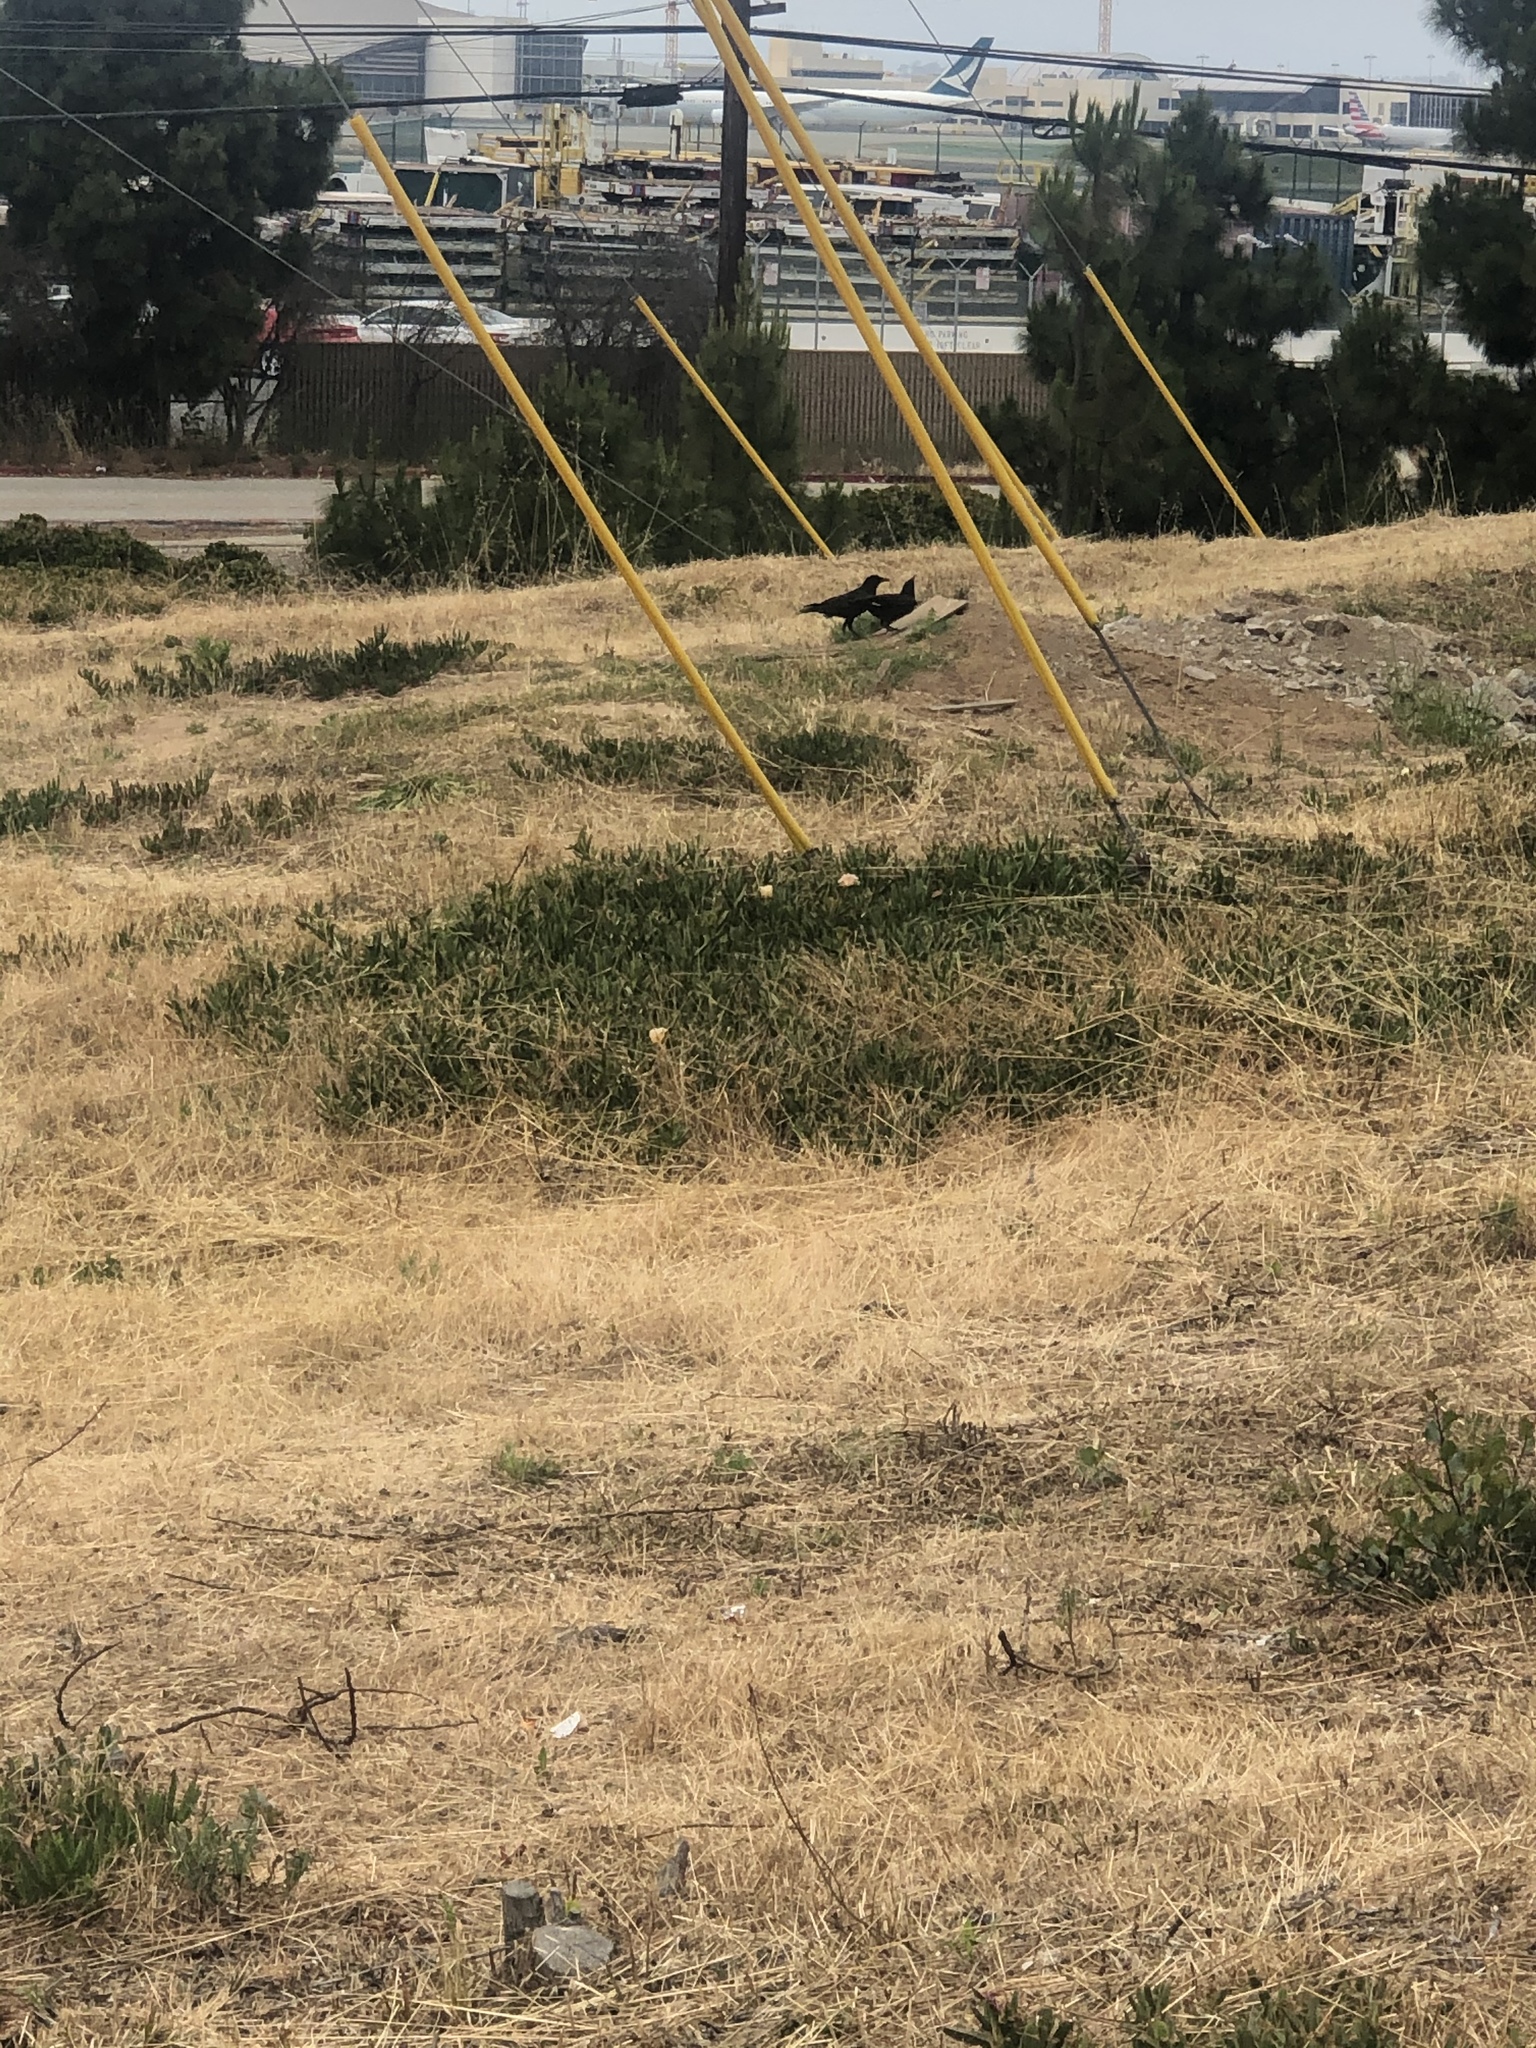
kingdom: Animalia
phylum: Chordata
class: Aves
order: Passeriformes
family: Corvidae
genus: Corvus
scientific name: Corvus brachyrhynchos
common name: American crow
